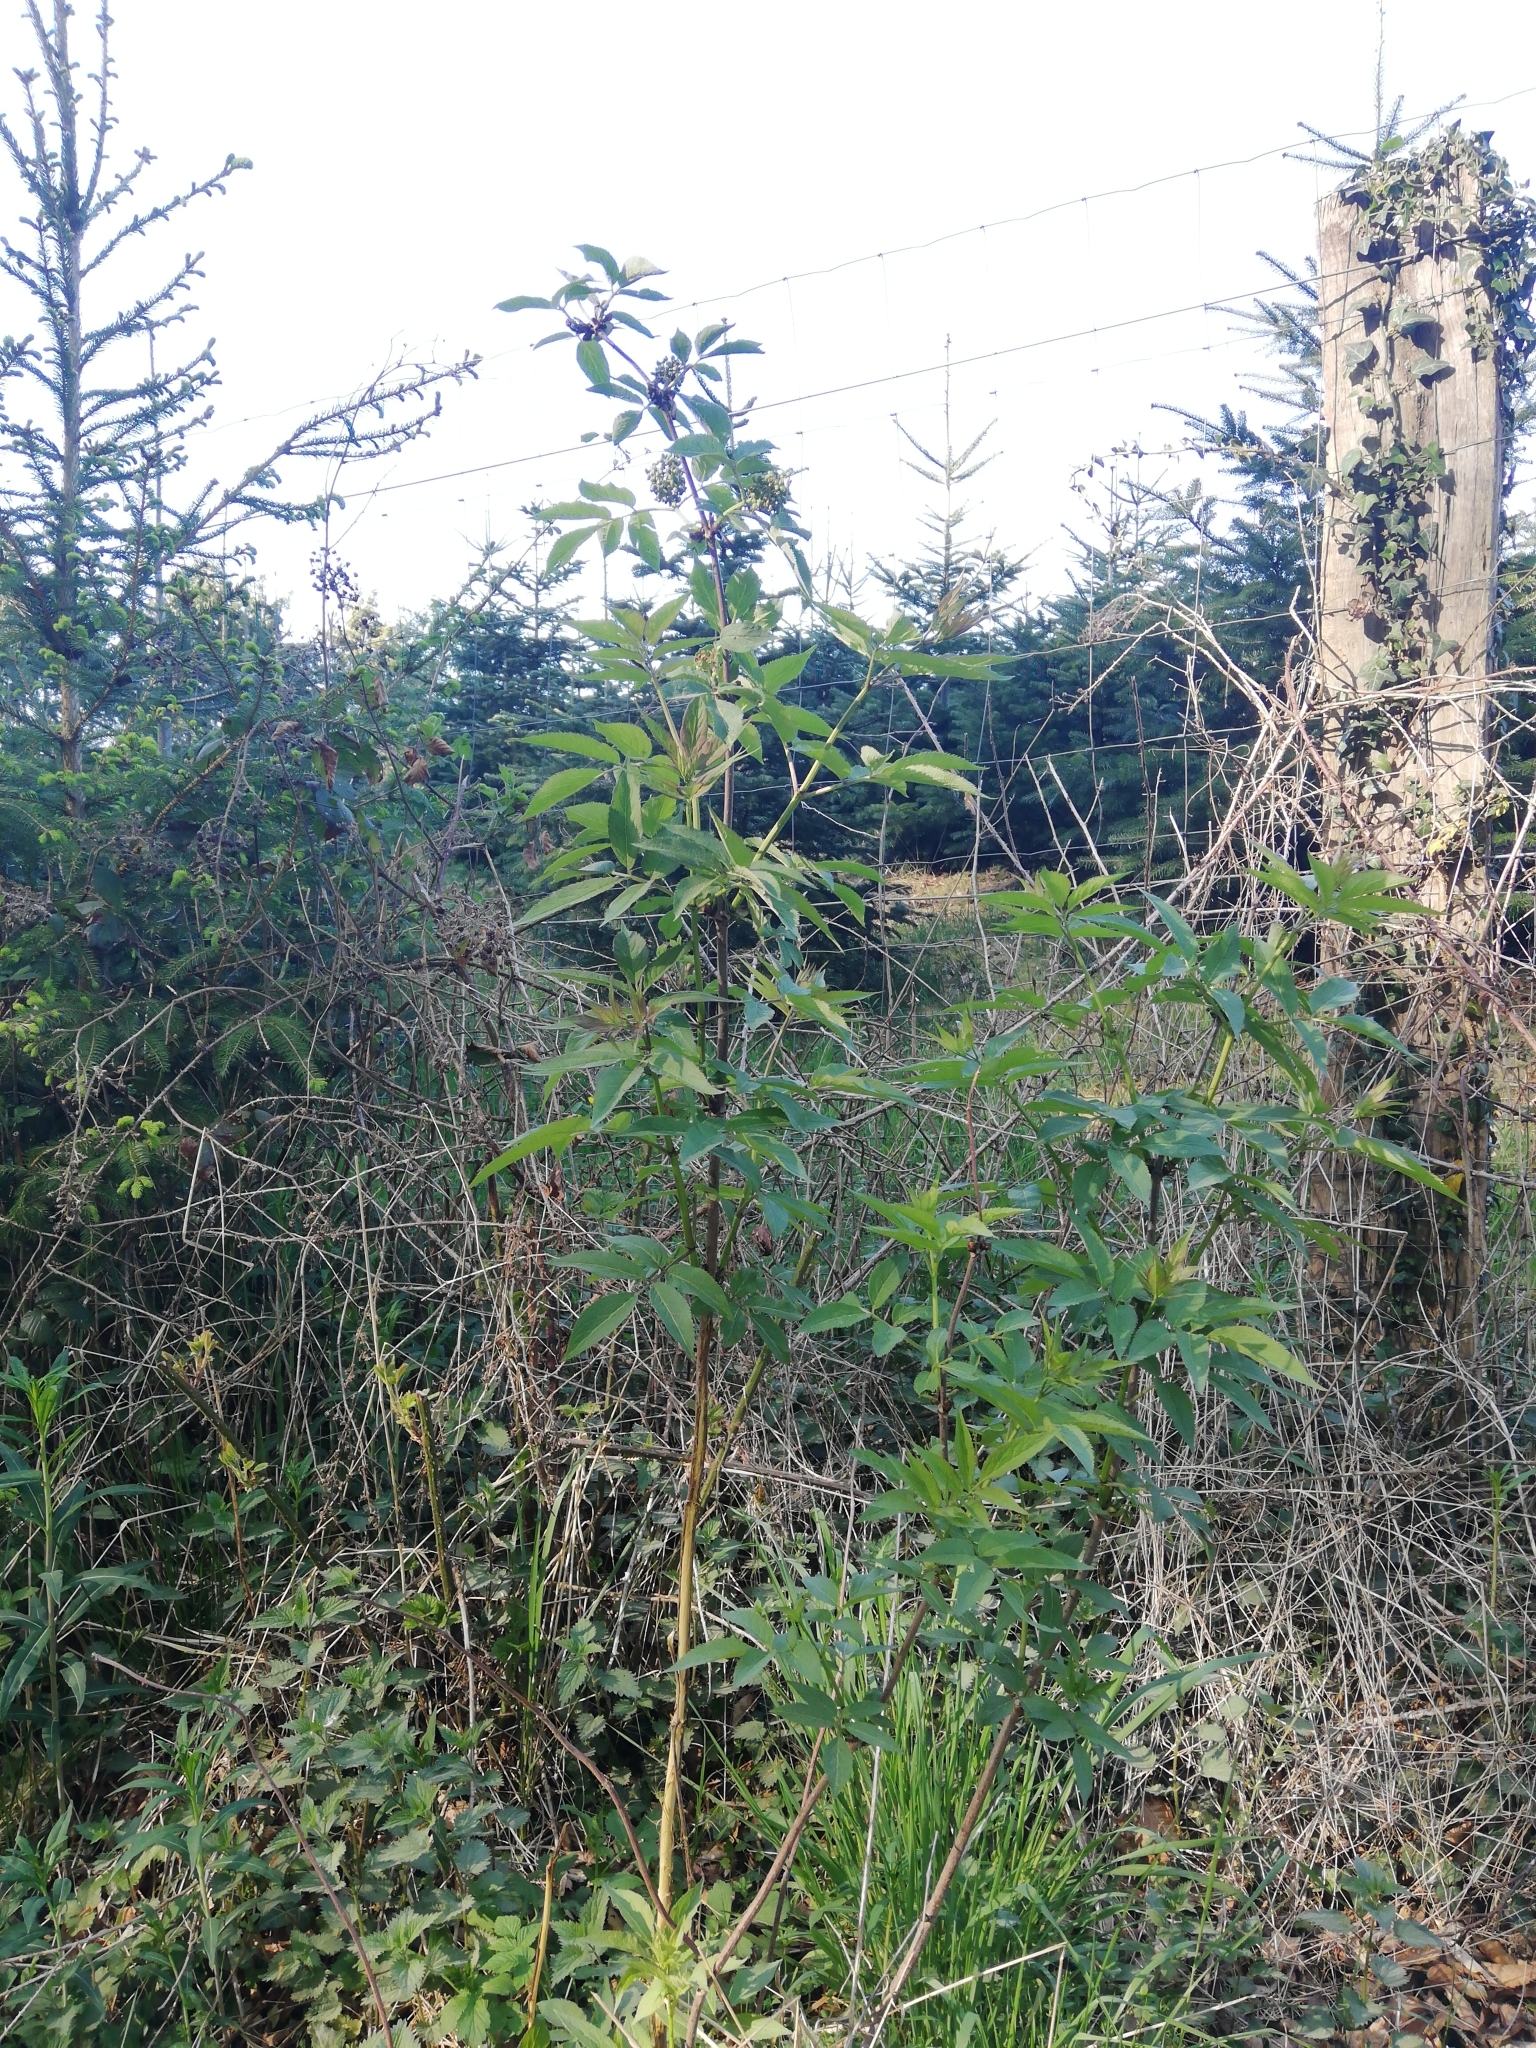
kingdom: Plantae
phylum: Tracheophyta
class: Magnoliopsida
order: Dipsacales
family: Viburnaceae
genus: Sambucus
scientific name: Sambucus racemosa
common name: Red-berried elder
